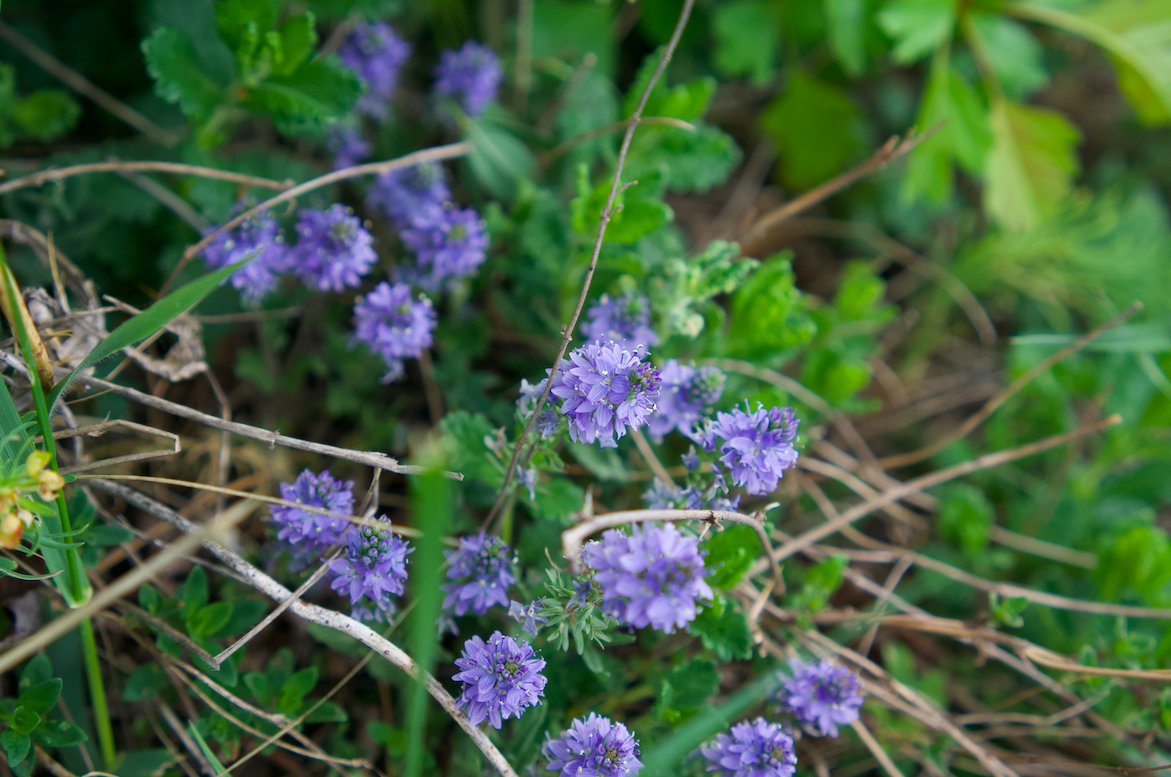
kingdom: Plantae
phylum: Tracheophyta
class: Magnoliopsida
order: Lamiales
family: Plantaginaceae
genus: Veronica
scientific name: Veronica prostrata
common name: Prostrate speedwell
